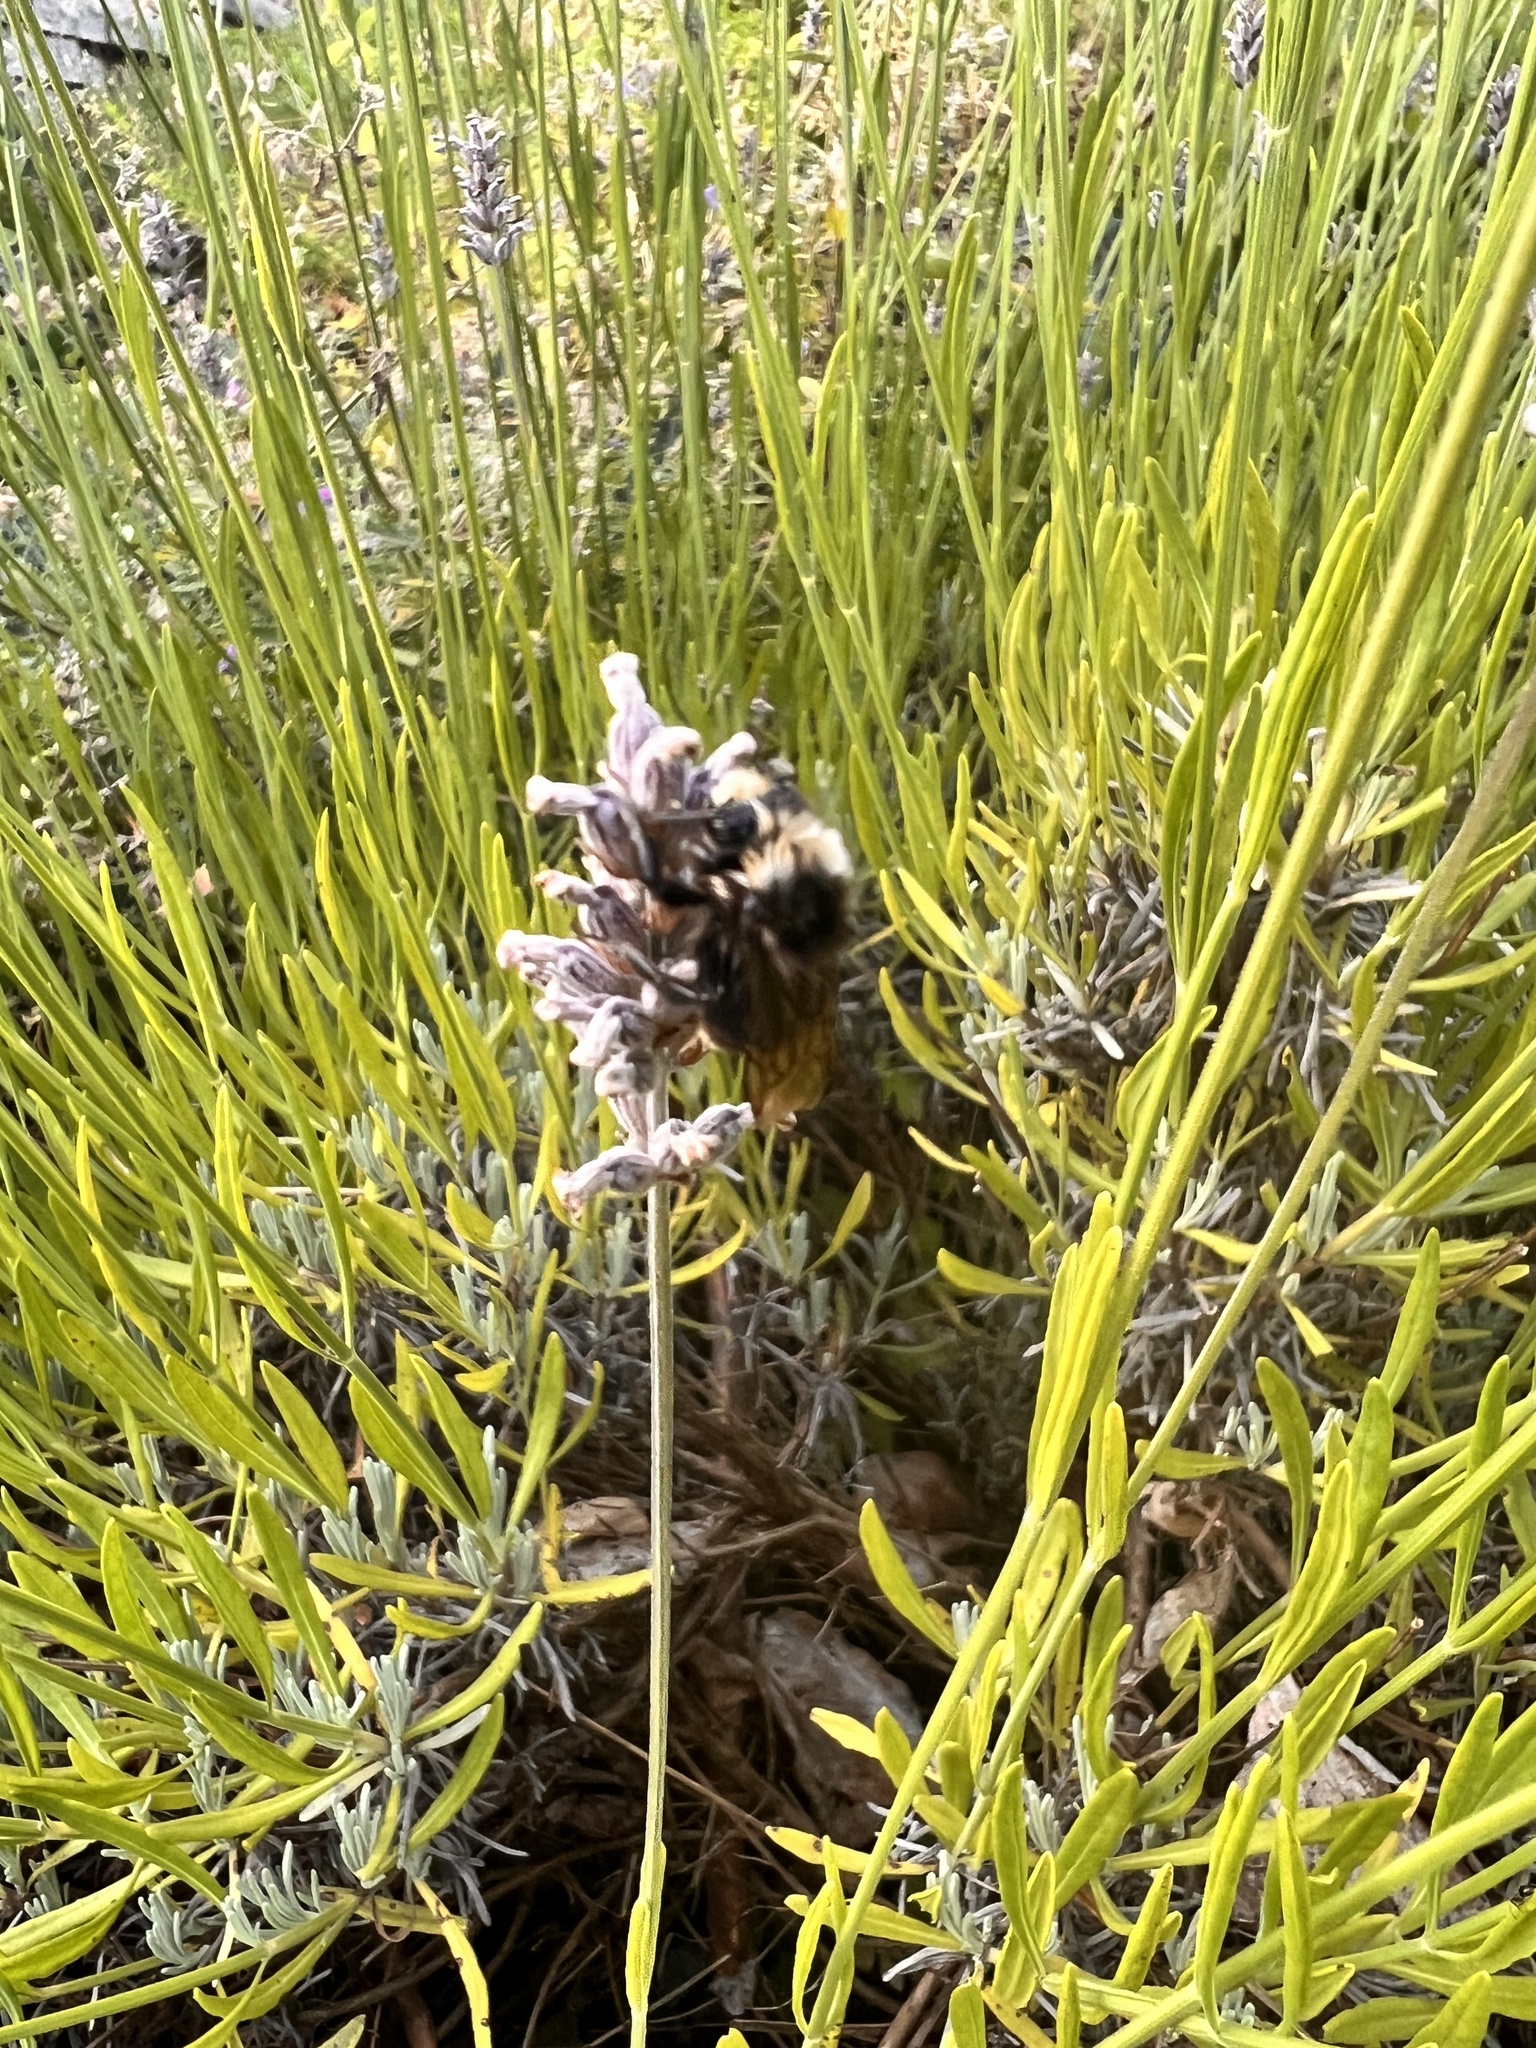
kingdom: Animalia
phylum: Arthropoda
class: Insecta
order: Hymenoptera
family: Apidae
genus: Bombus
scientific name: Bombus vosnesenskii
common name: Vosnesensky bumble bee
